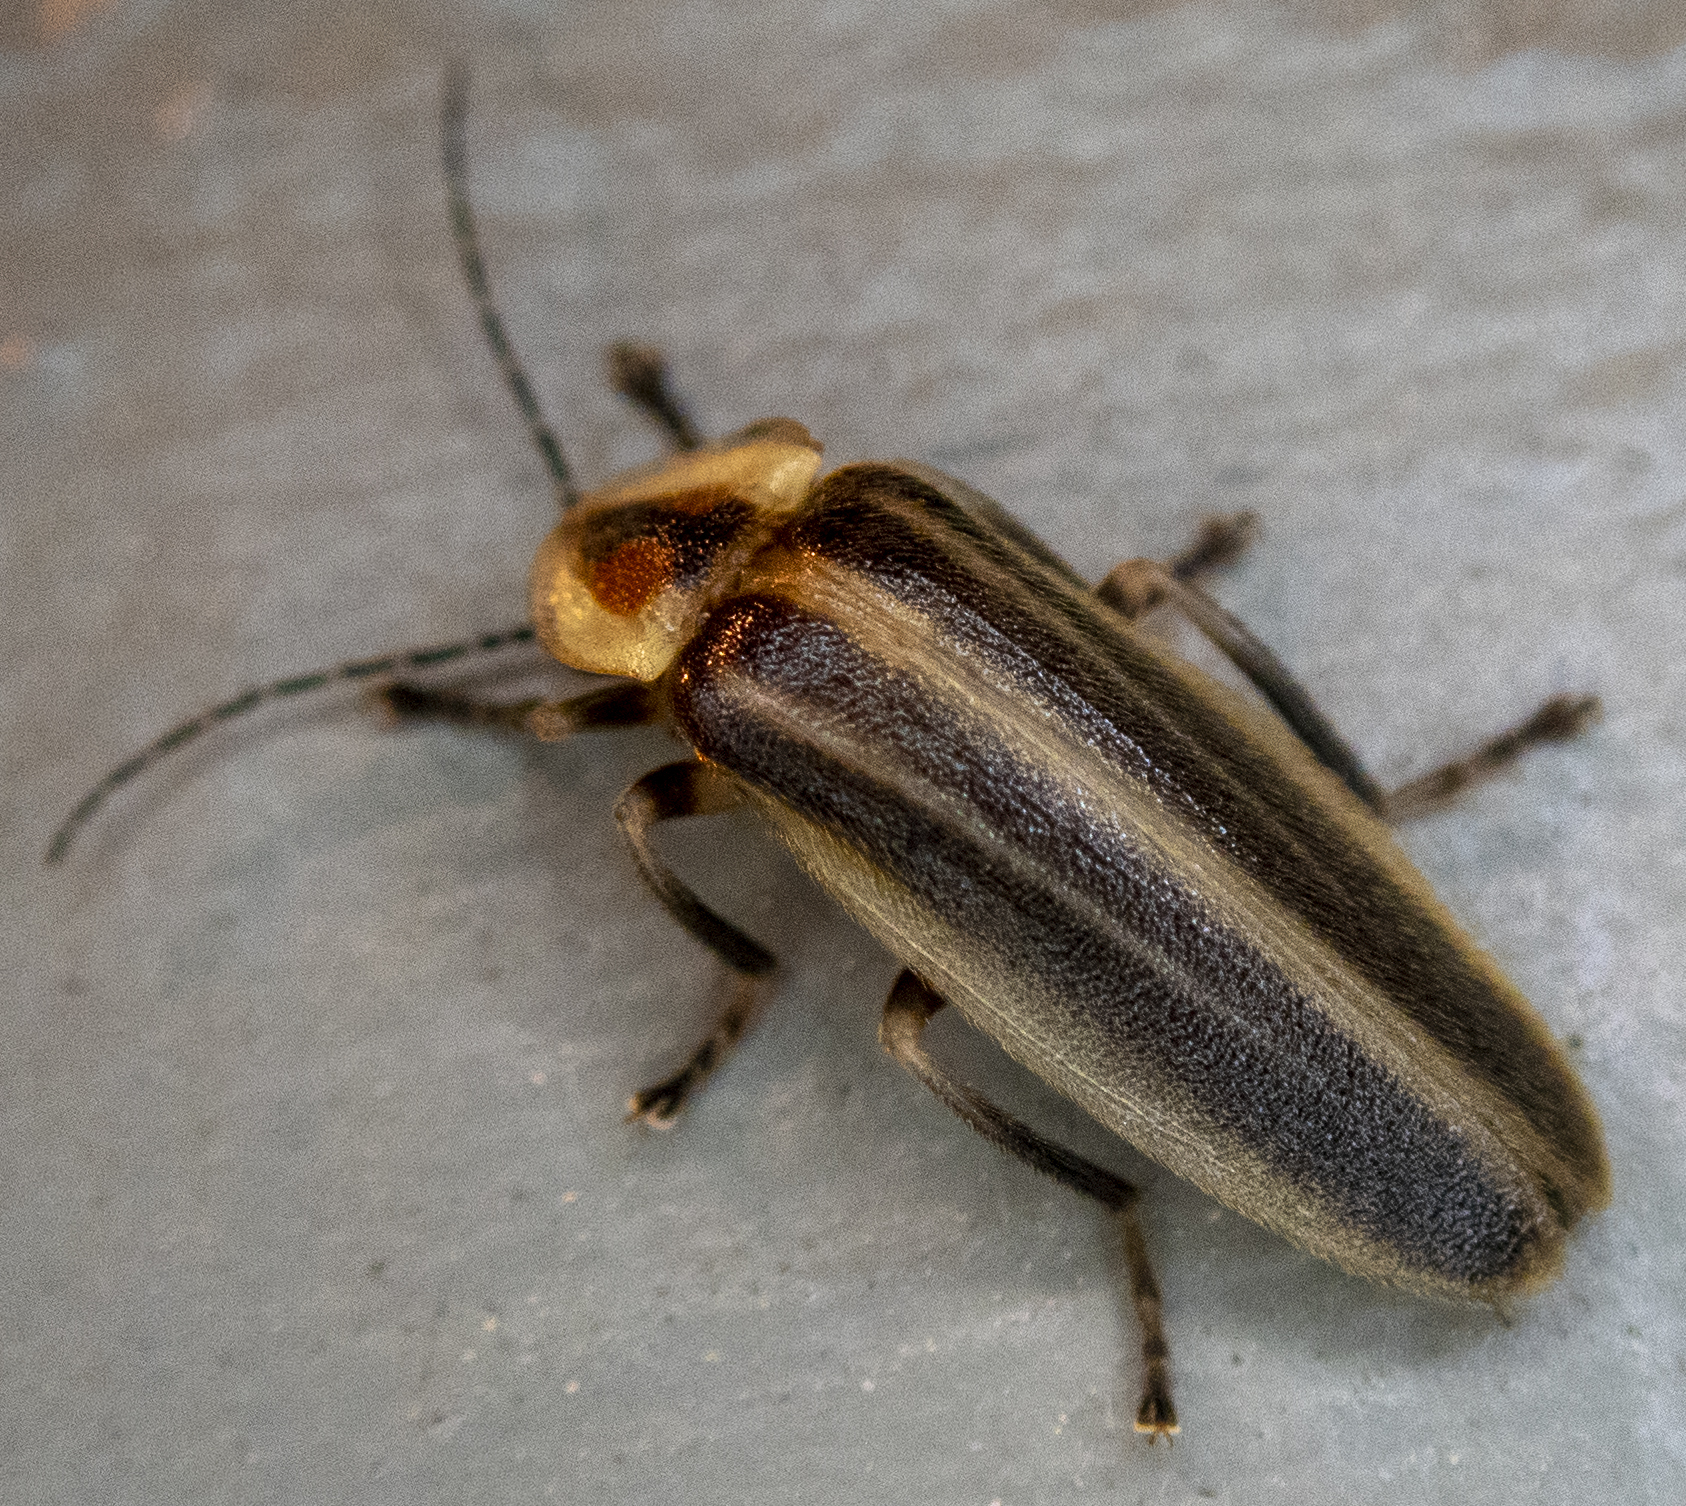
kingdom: Animalia
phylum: Arthropoda
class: Insecta
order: Coleoptera
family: Lampyridae
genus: Photuris
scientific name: Photuris
